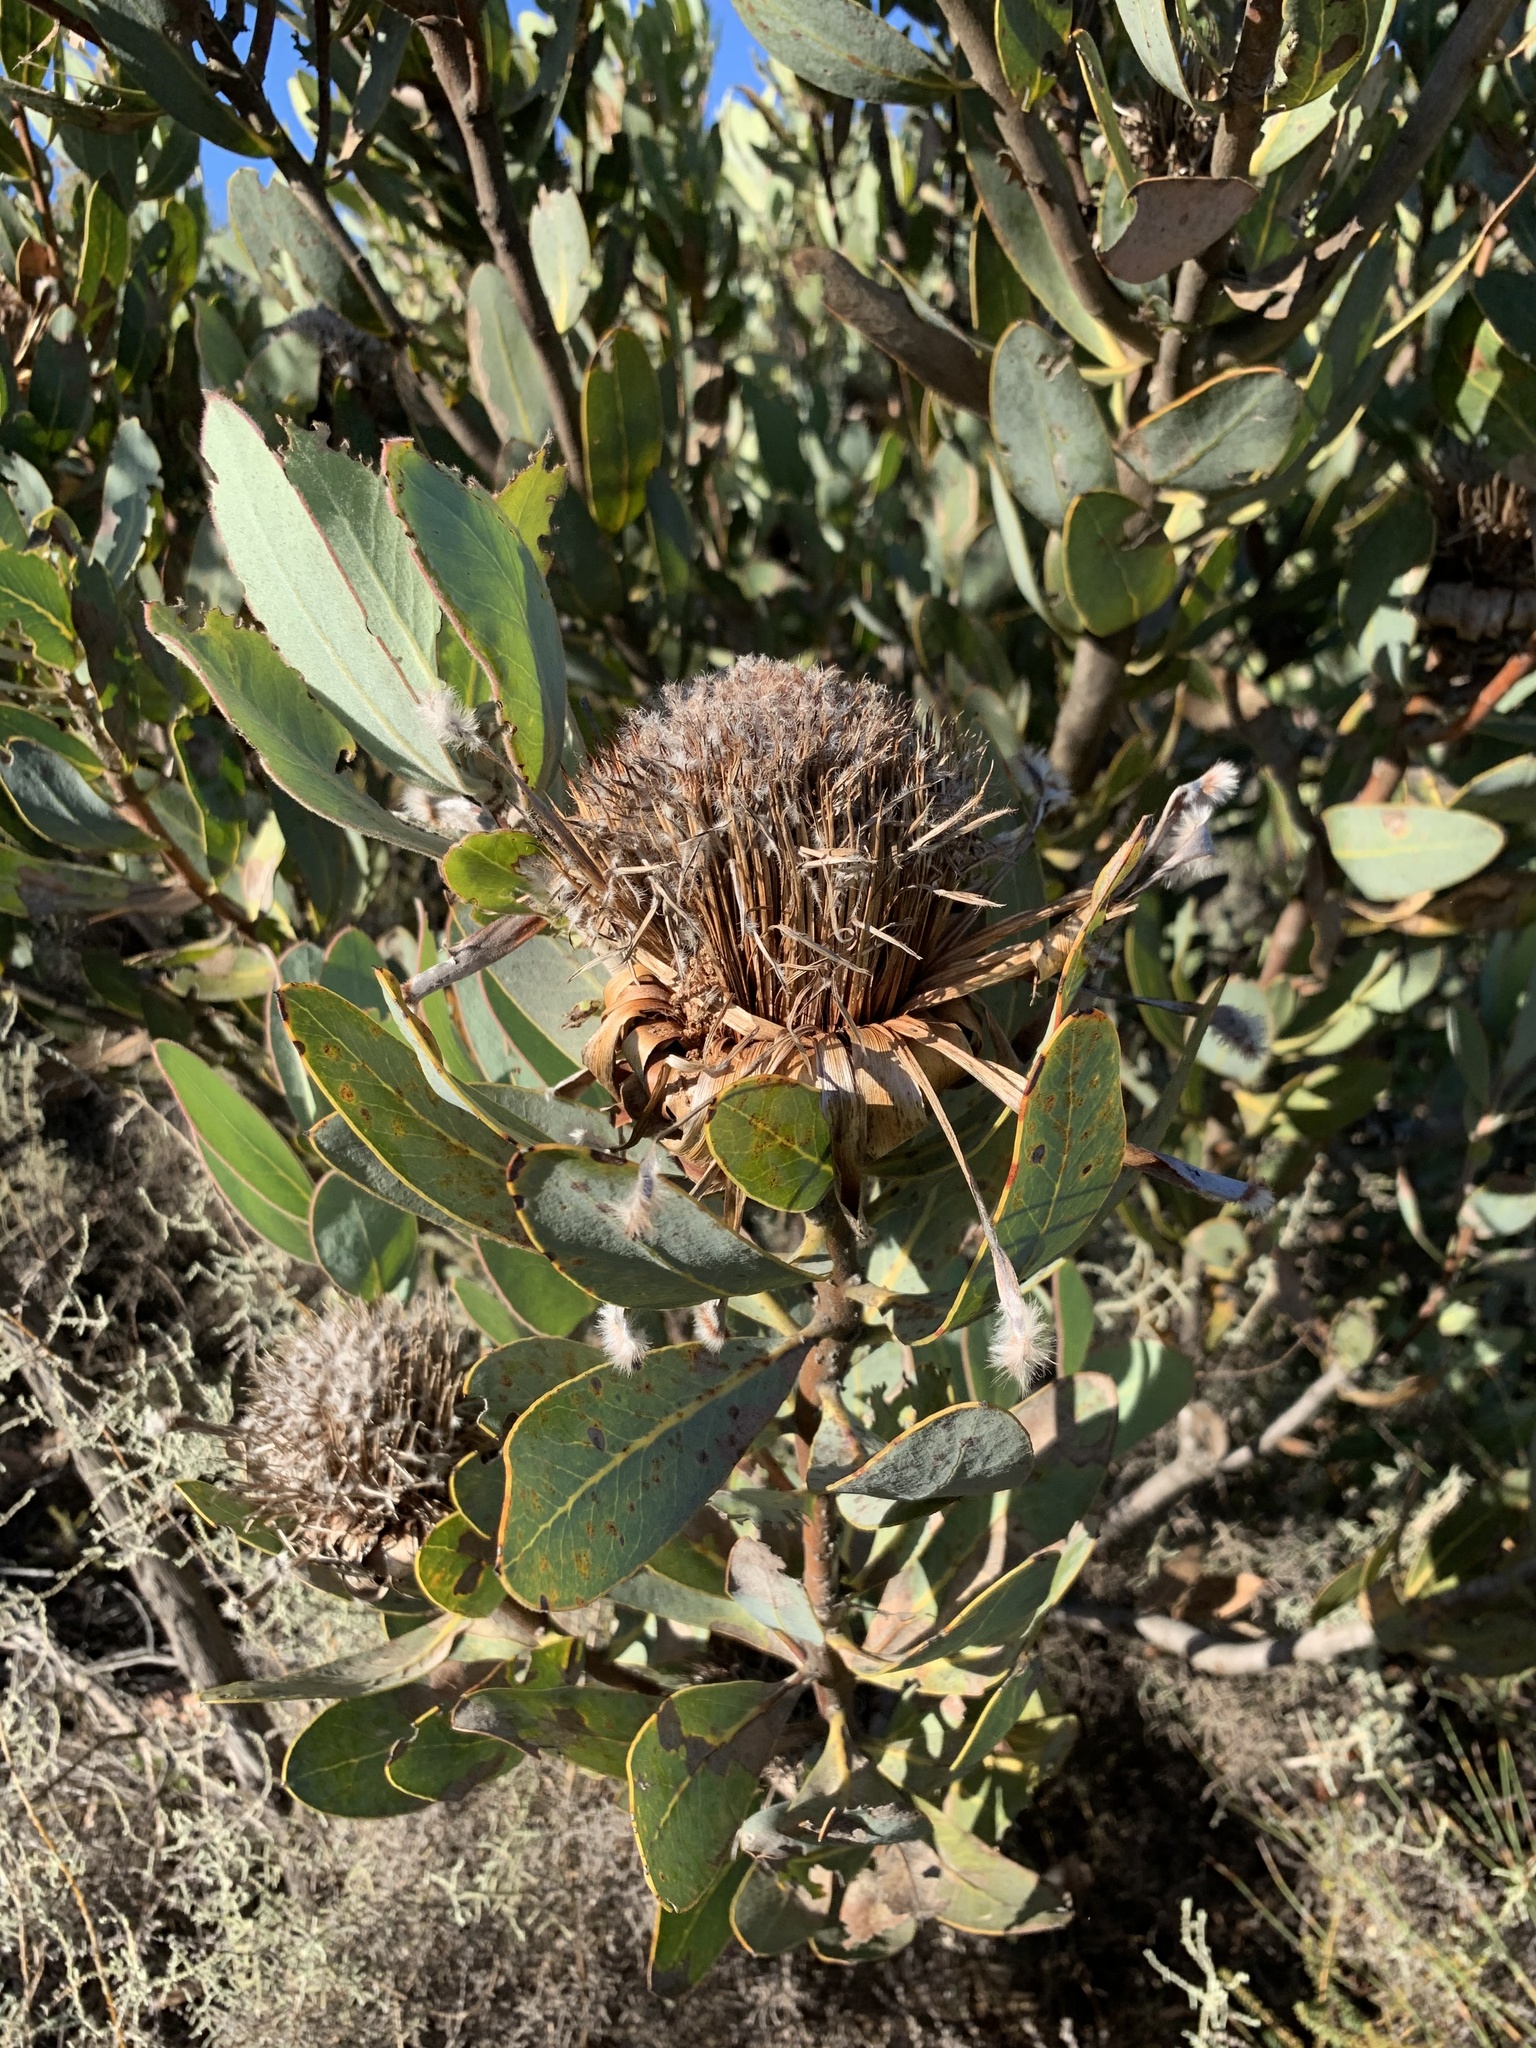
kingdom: Plantae
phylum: Tracheophyta
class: Magnoliopsida
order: Proteales
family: Proteaceae
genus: Protea
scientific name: Protea laurifolia
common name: Grey-leaf sugarbsh
